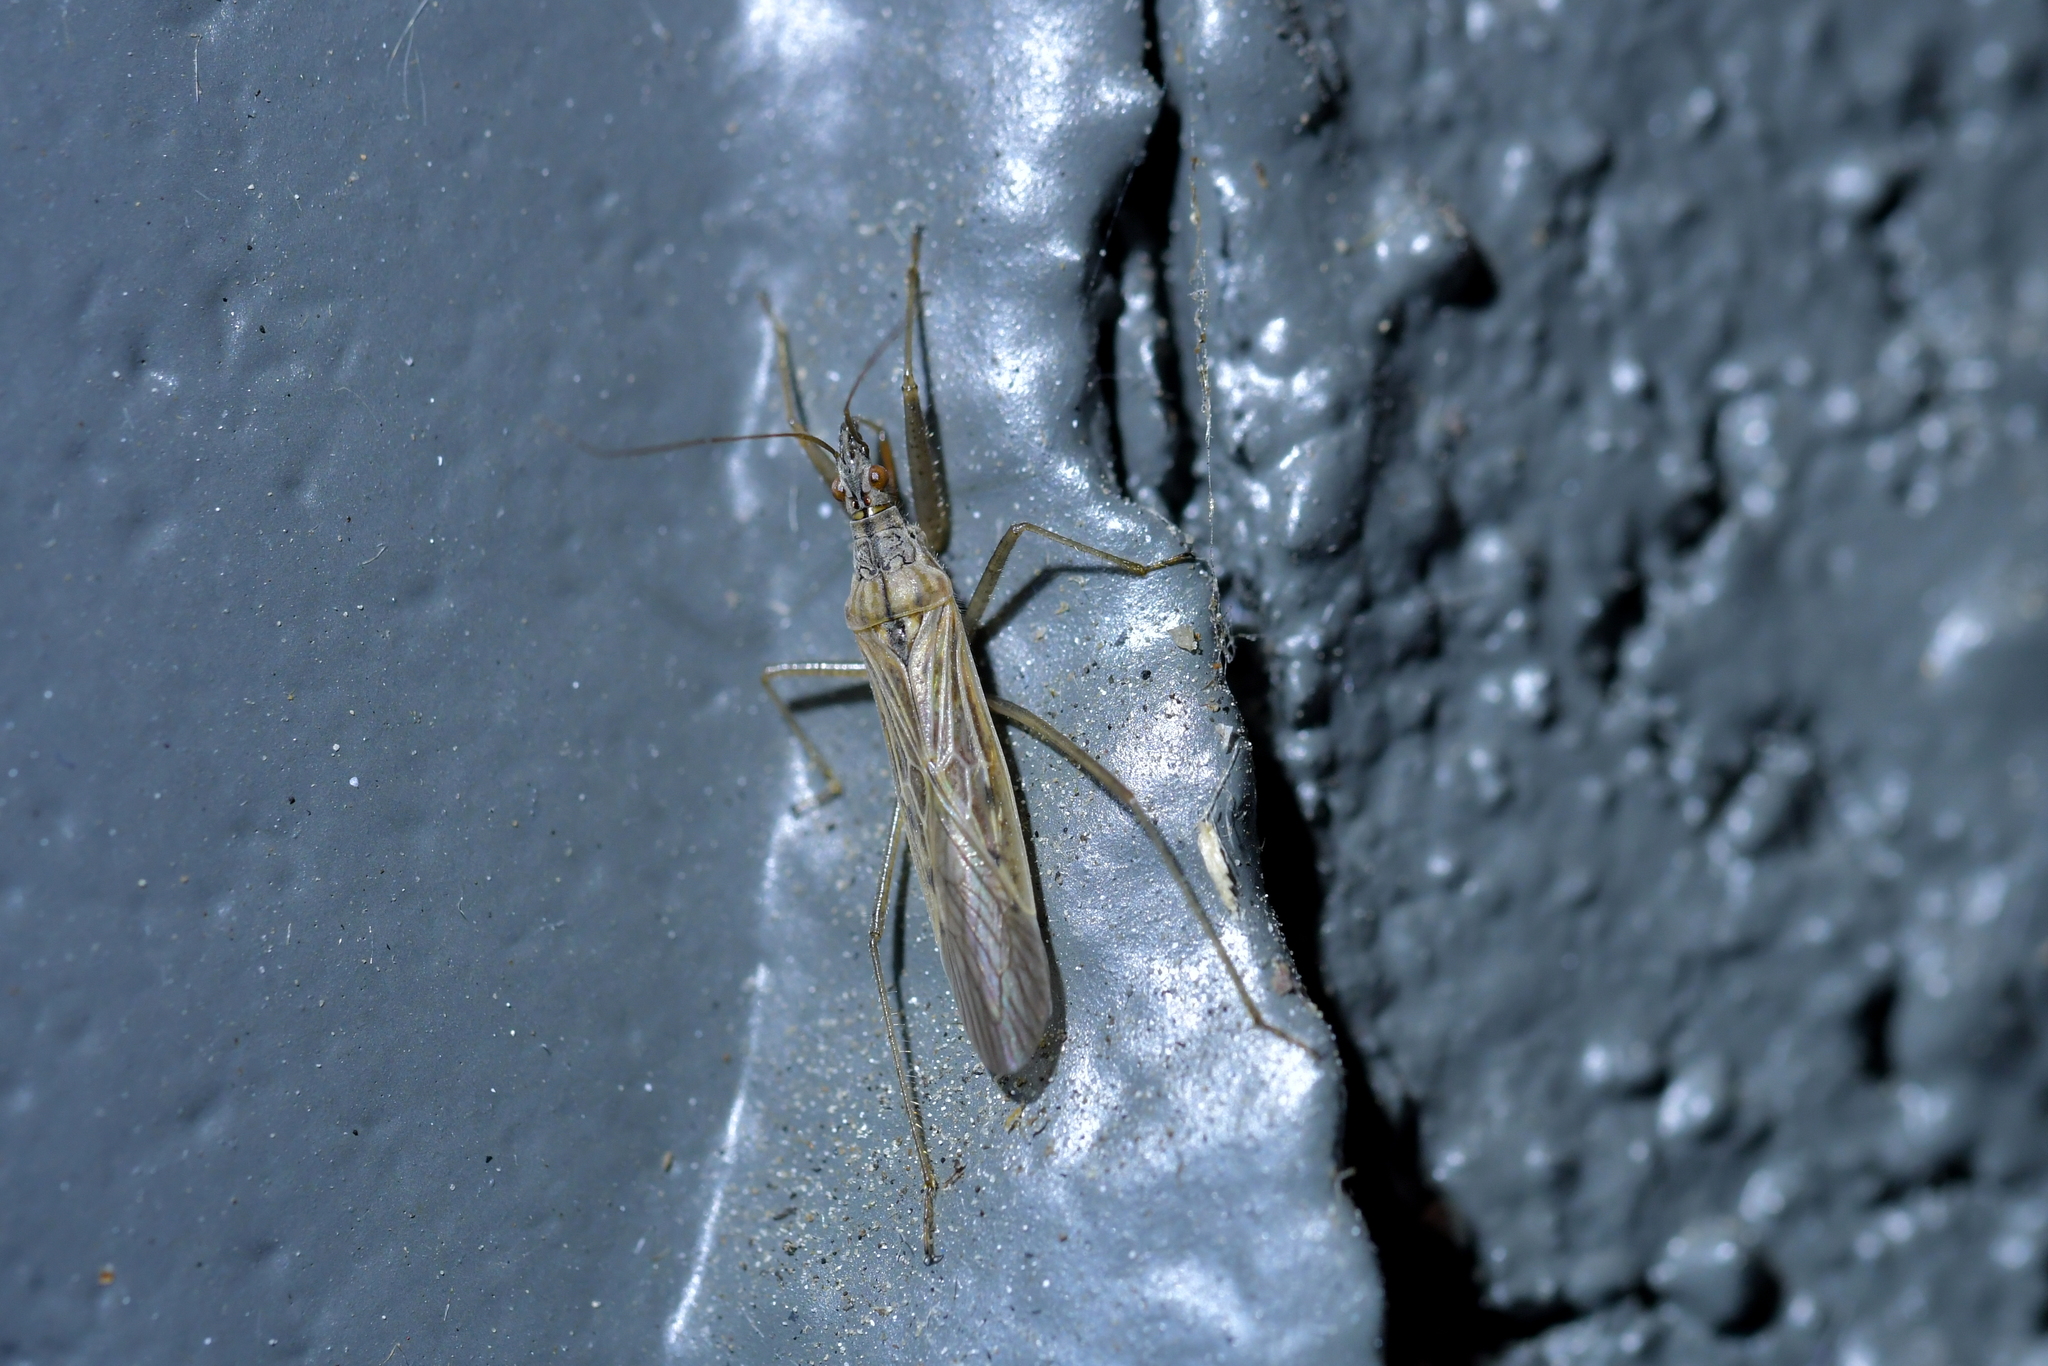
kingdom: Animalia
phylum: Arthropoda
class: Insecta
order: Hemiptera
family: Nabidae
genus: Nabis
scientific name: Nabis kinbergii
